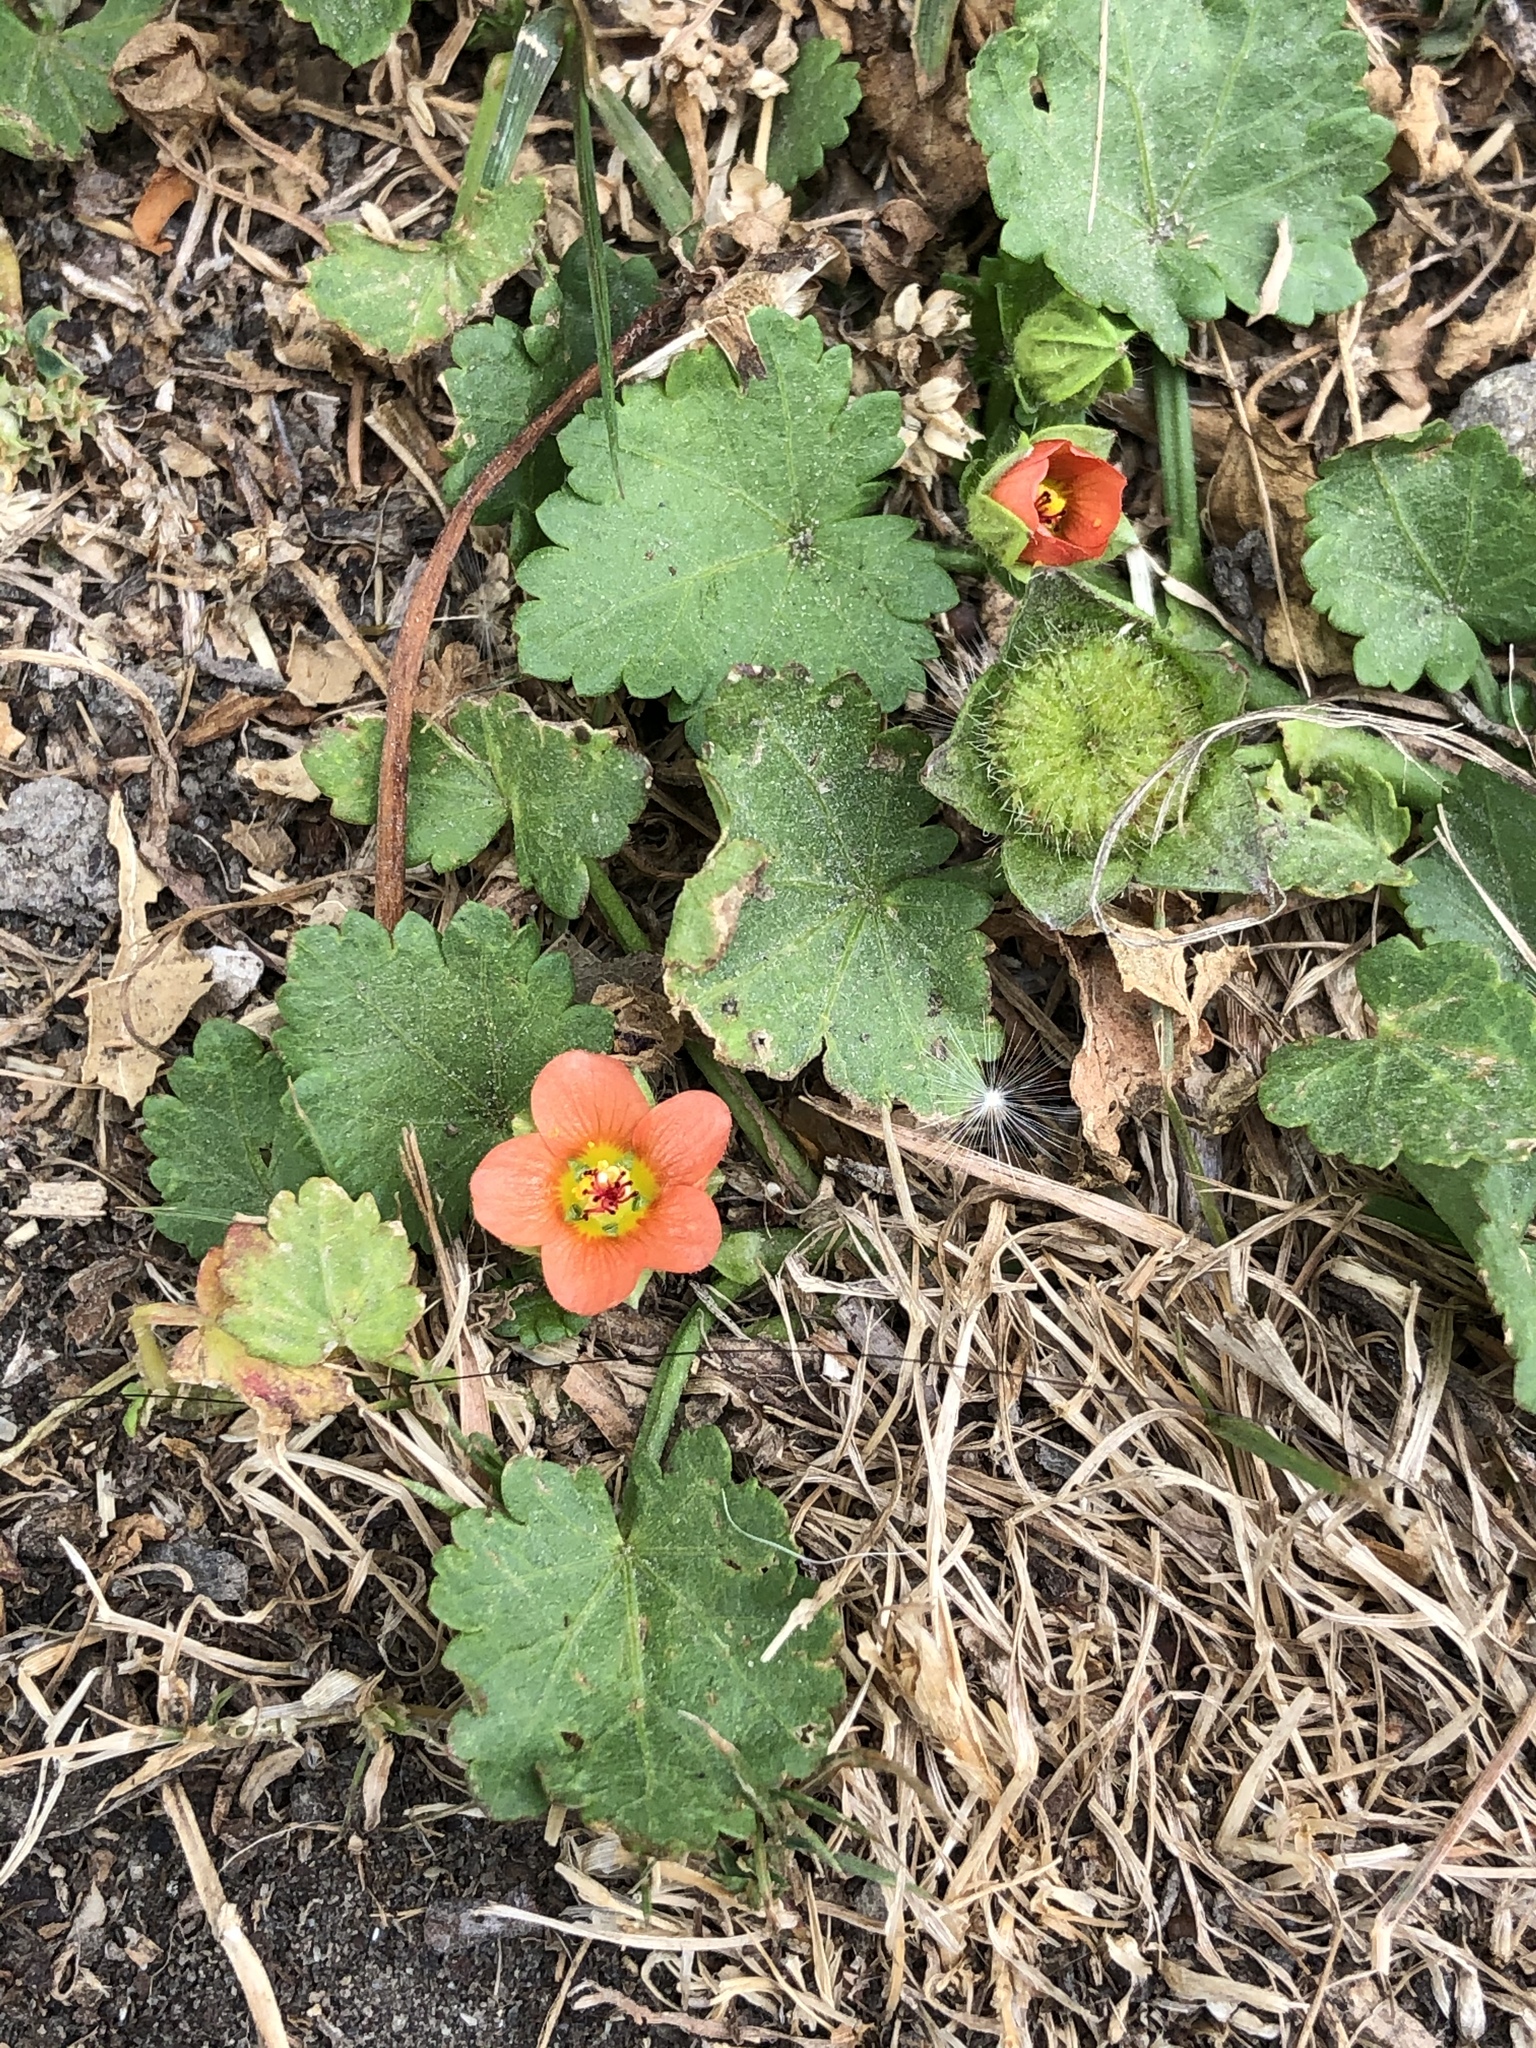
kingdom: Plantae
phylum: Tracheophyta
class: Magnoliopsida
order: Malvales
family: Malvaceae
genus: Modiola
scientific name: Modiola caroliniana
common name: Carolina bristlemallow
